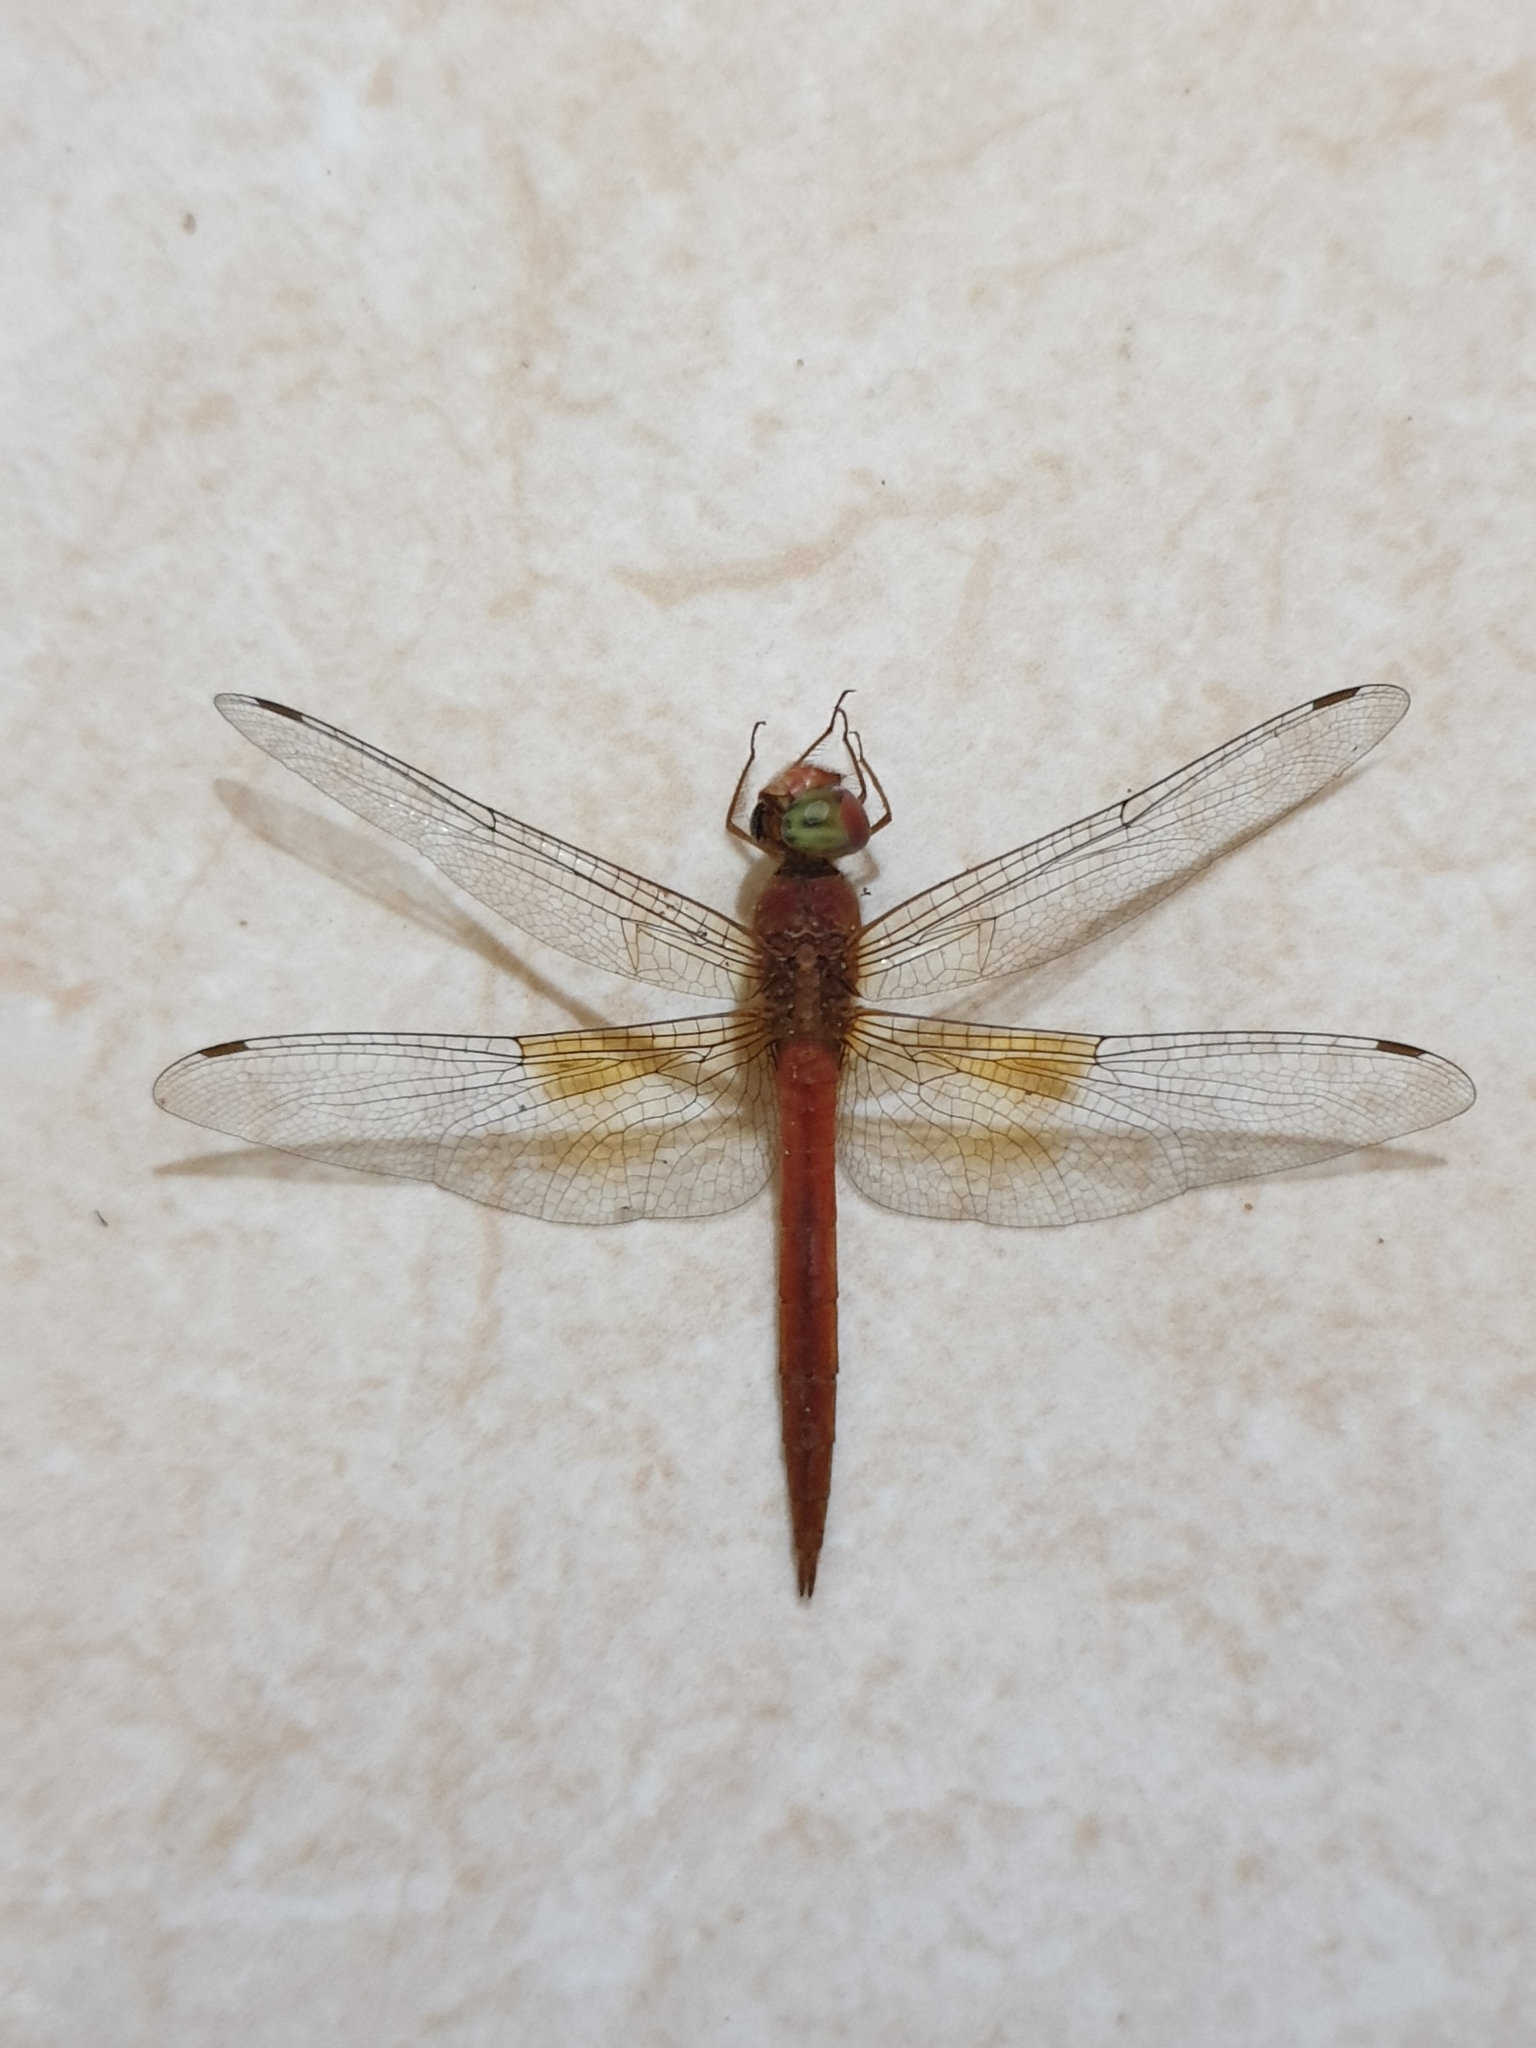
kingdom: Animalia
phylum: Arthropoda
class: Insecta
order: Odonata
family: Libellulidae
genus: Tholymis
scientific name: Tholymis tillarga
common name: Coral-tailed cloud wing
